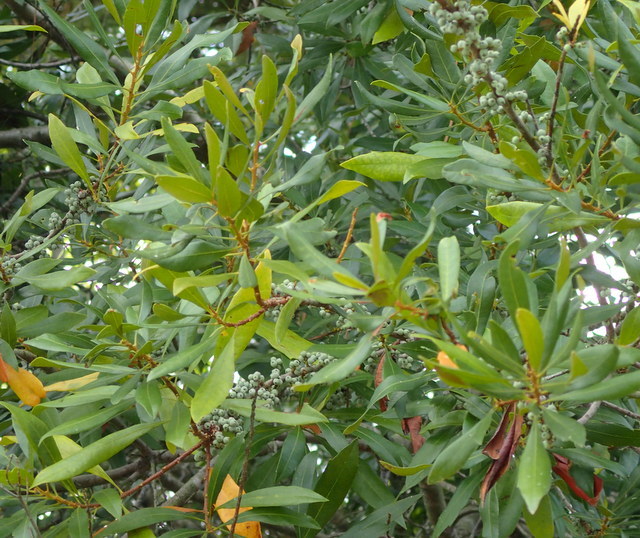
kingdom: Plantae
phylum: Tracheophyta
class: Magnoliopsida
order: Fagales
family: Myricaceae
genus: Morella
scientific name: Morella cerifera
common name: Wax myrtle
